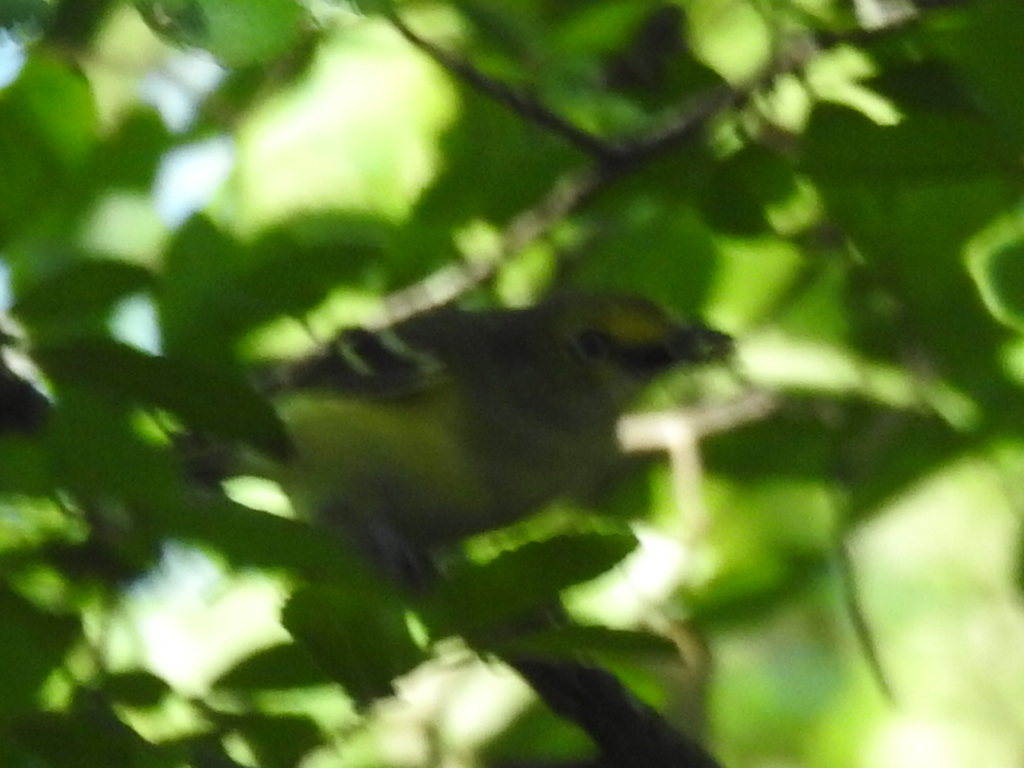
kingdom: Animalia
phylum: Chordata
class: Aves
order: Passeriformes
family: Vireonidae
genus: Vireo
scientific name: Vireo griseus
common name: White-eyed vireo
